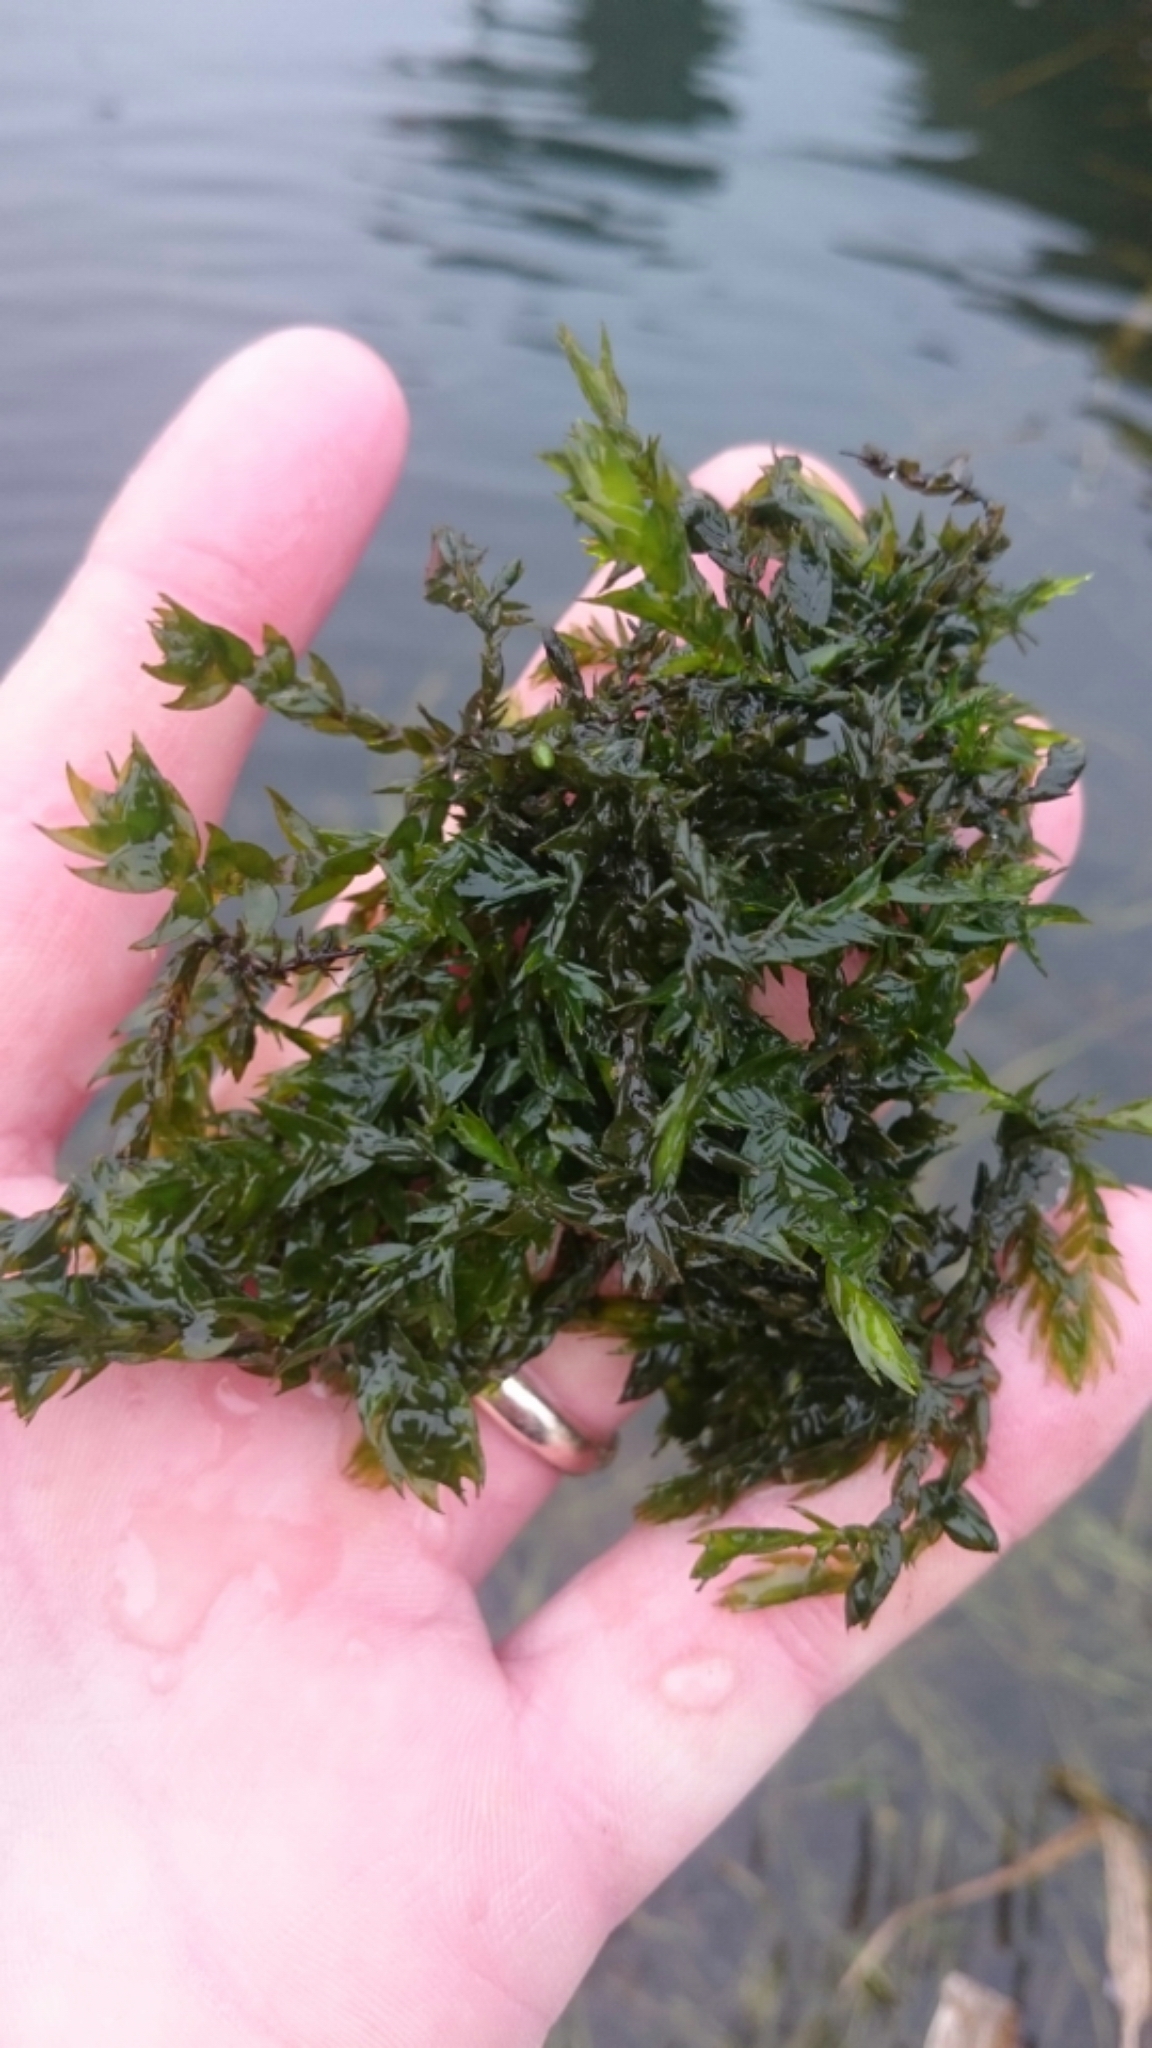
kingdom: Plantae
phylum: Bryophyta
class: Bryopsida
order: Hypnales
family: Fontinalaceae
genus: Fontinalis
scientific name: Fontinalis antipyretica
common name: Greater water-moss
